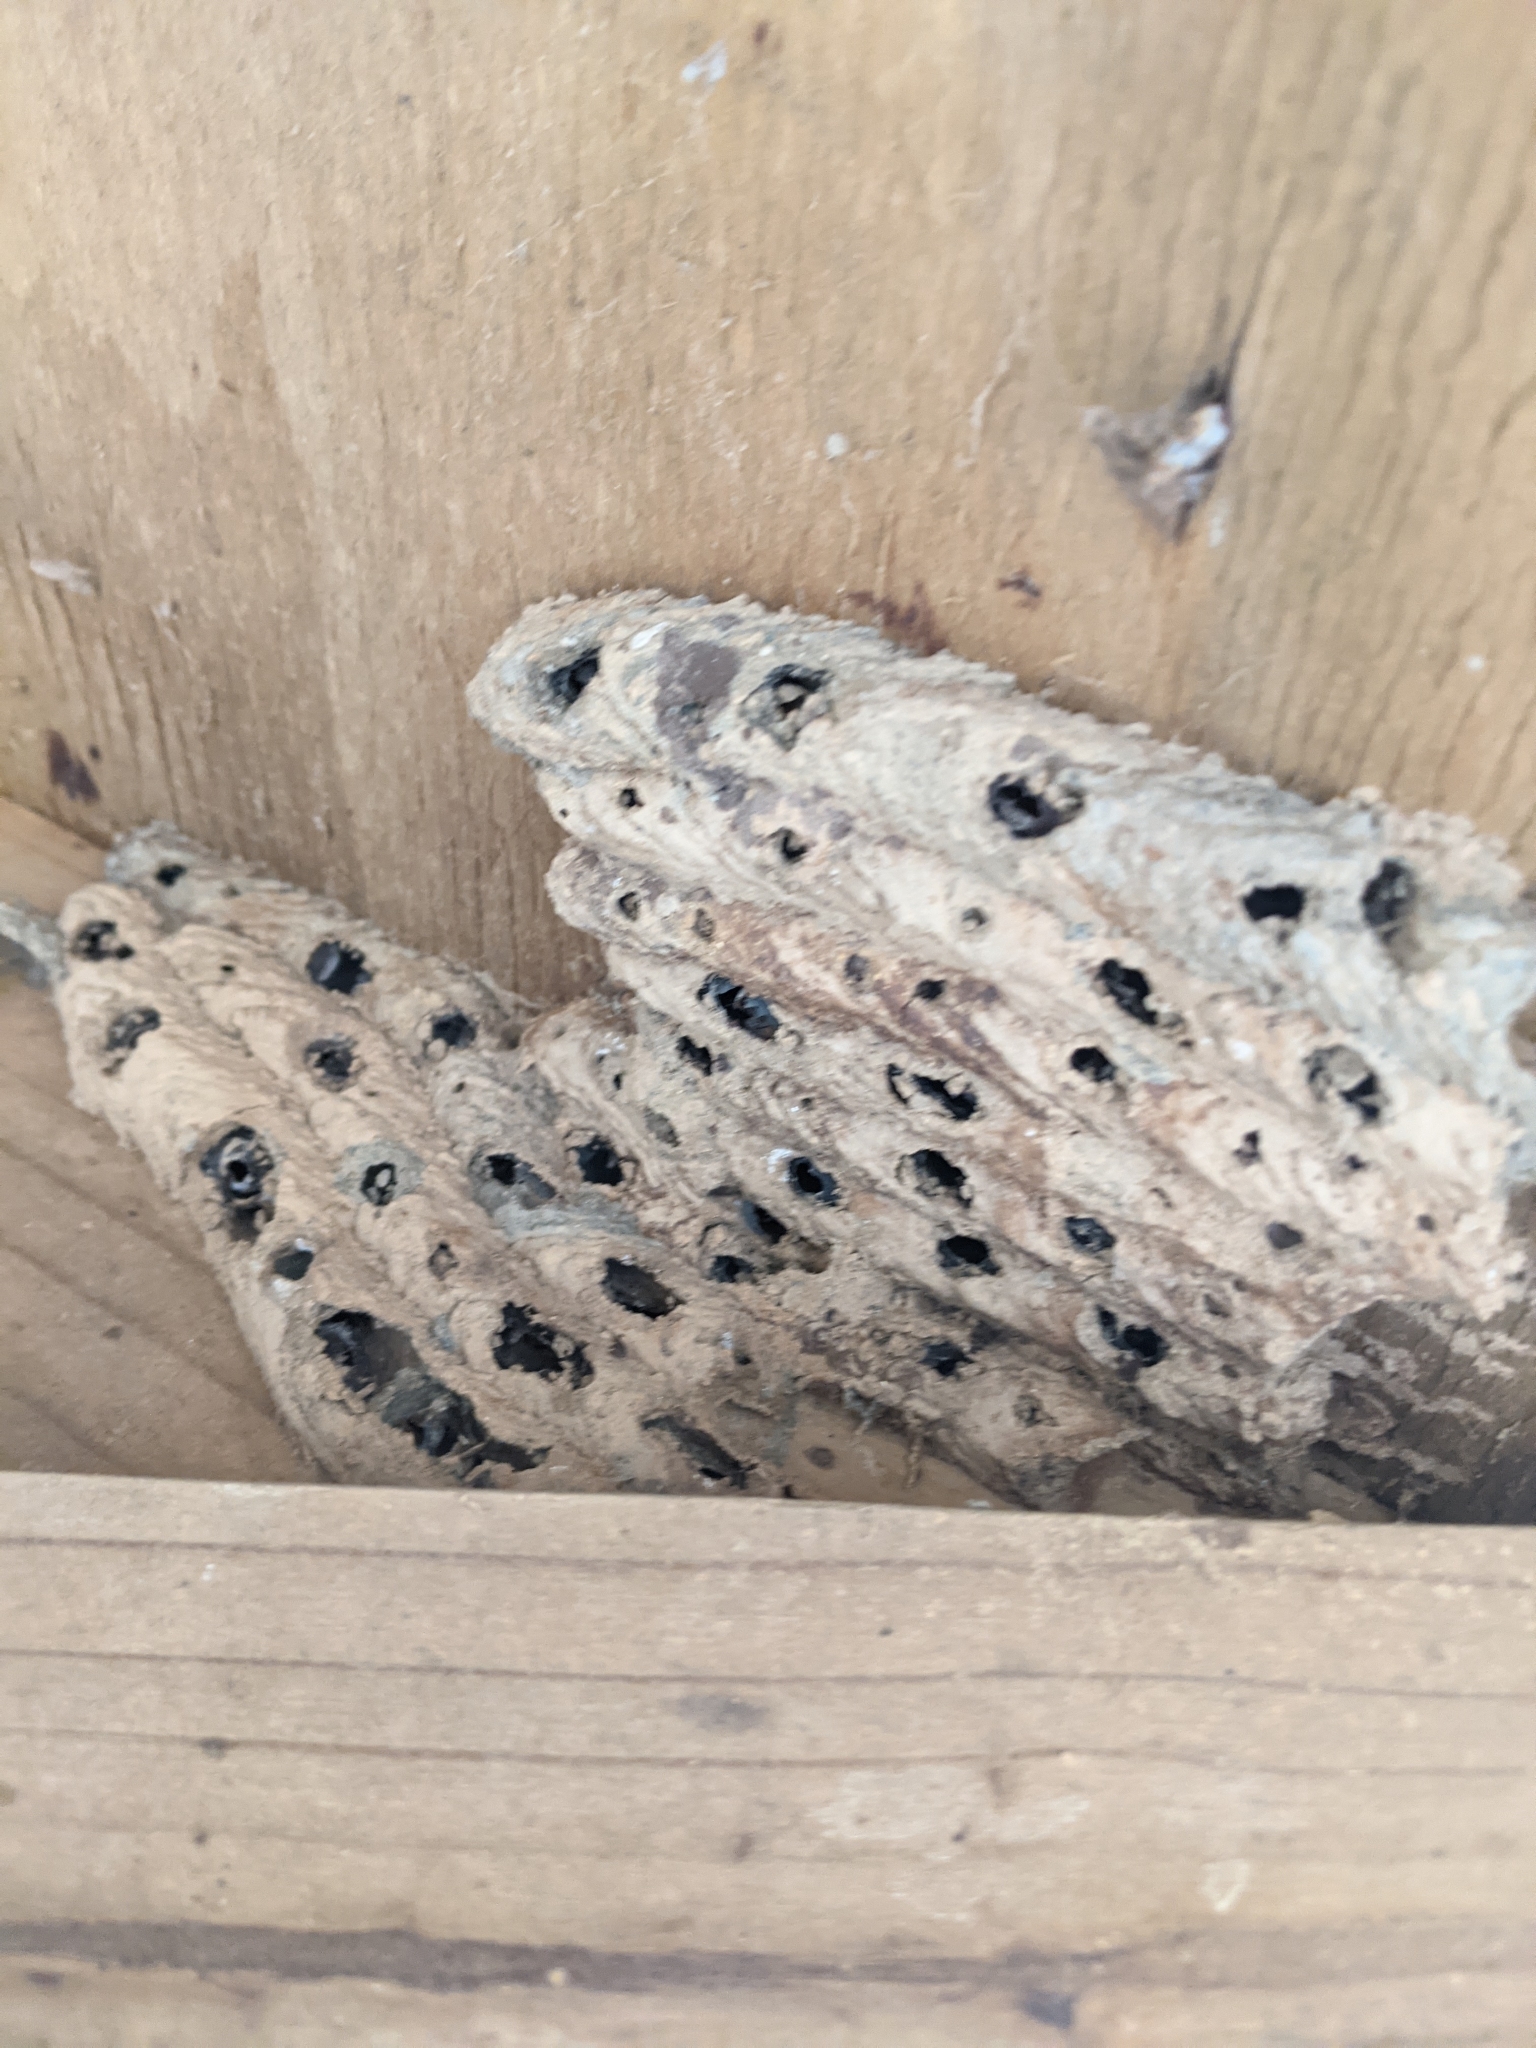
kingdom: Animalia
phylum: Arthropoda
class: Insecta
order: Hymenoptera
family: Crabronidae
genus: Trypoxylon
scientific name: Trypoxylon politum
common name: Organ-pipe mud-dauber wasp
